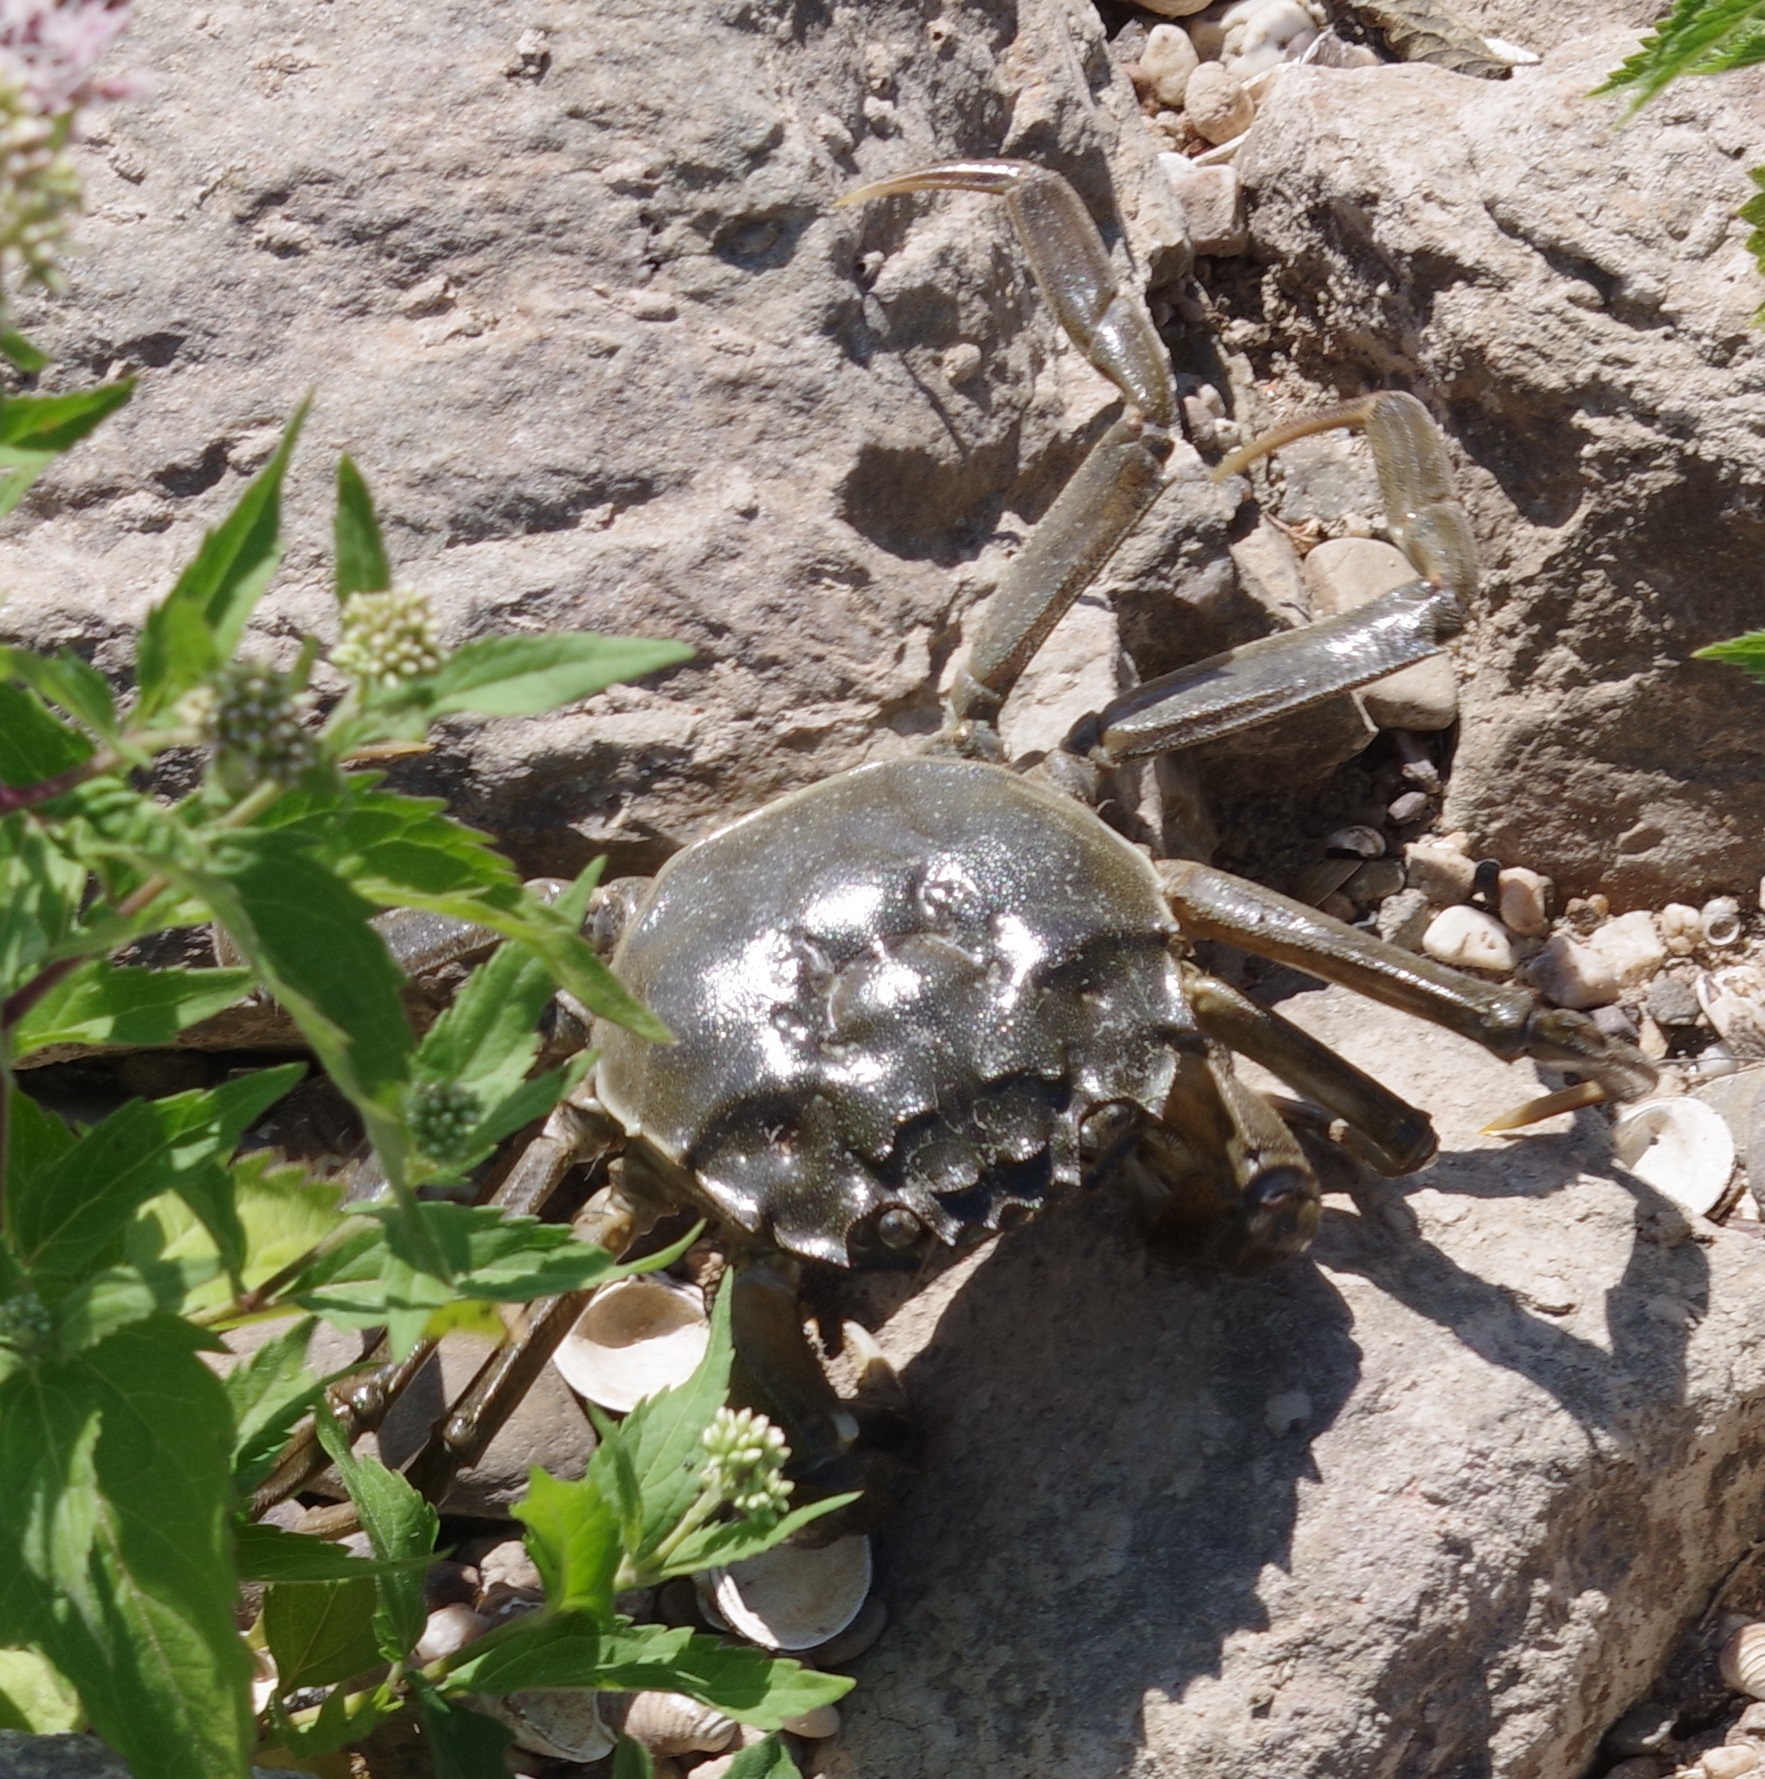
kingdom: Animalia
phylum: Arthropoda
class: Malacostraca
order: Decapoda
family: Varunidae
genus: Eriocheir
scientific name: Eriocheir sinensis
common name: Chinese mitten crab
